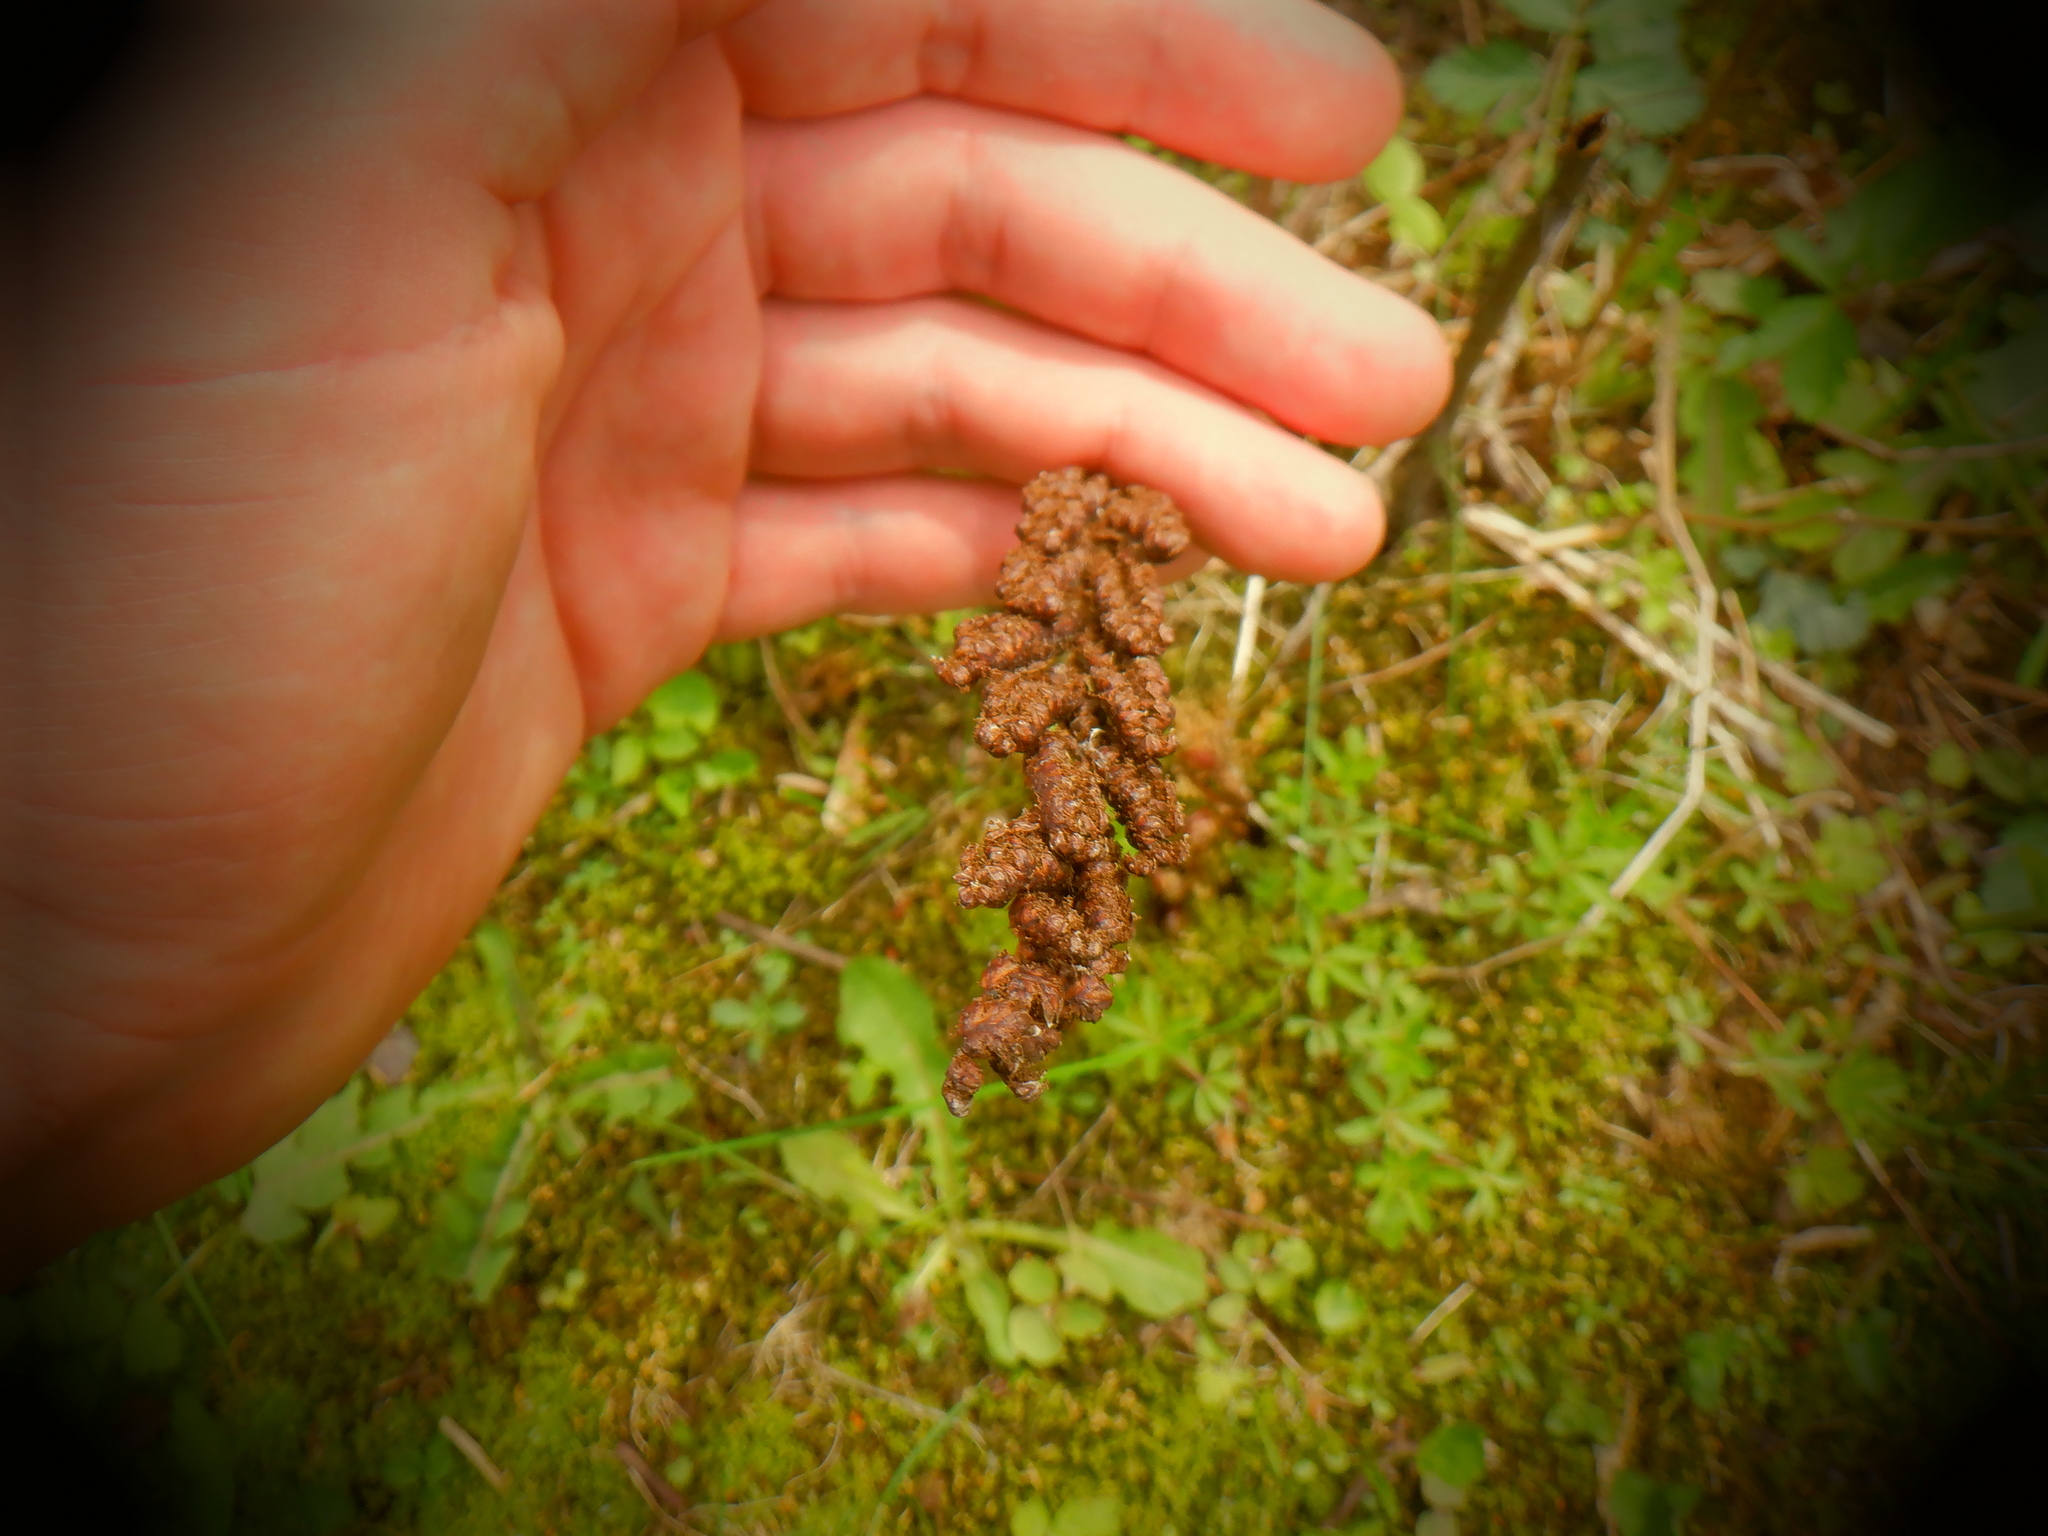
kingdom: Plantae
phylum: Tracheophyta
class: Polypodiopsida
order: Polypodiales
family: Onocleaceae
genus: Onoclea
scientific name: Onoclea sensibilis
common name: Sensitive fern
